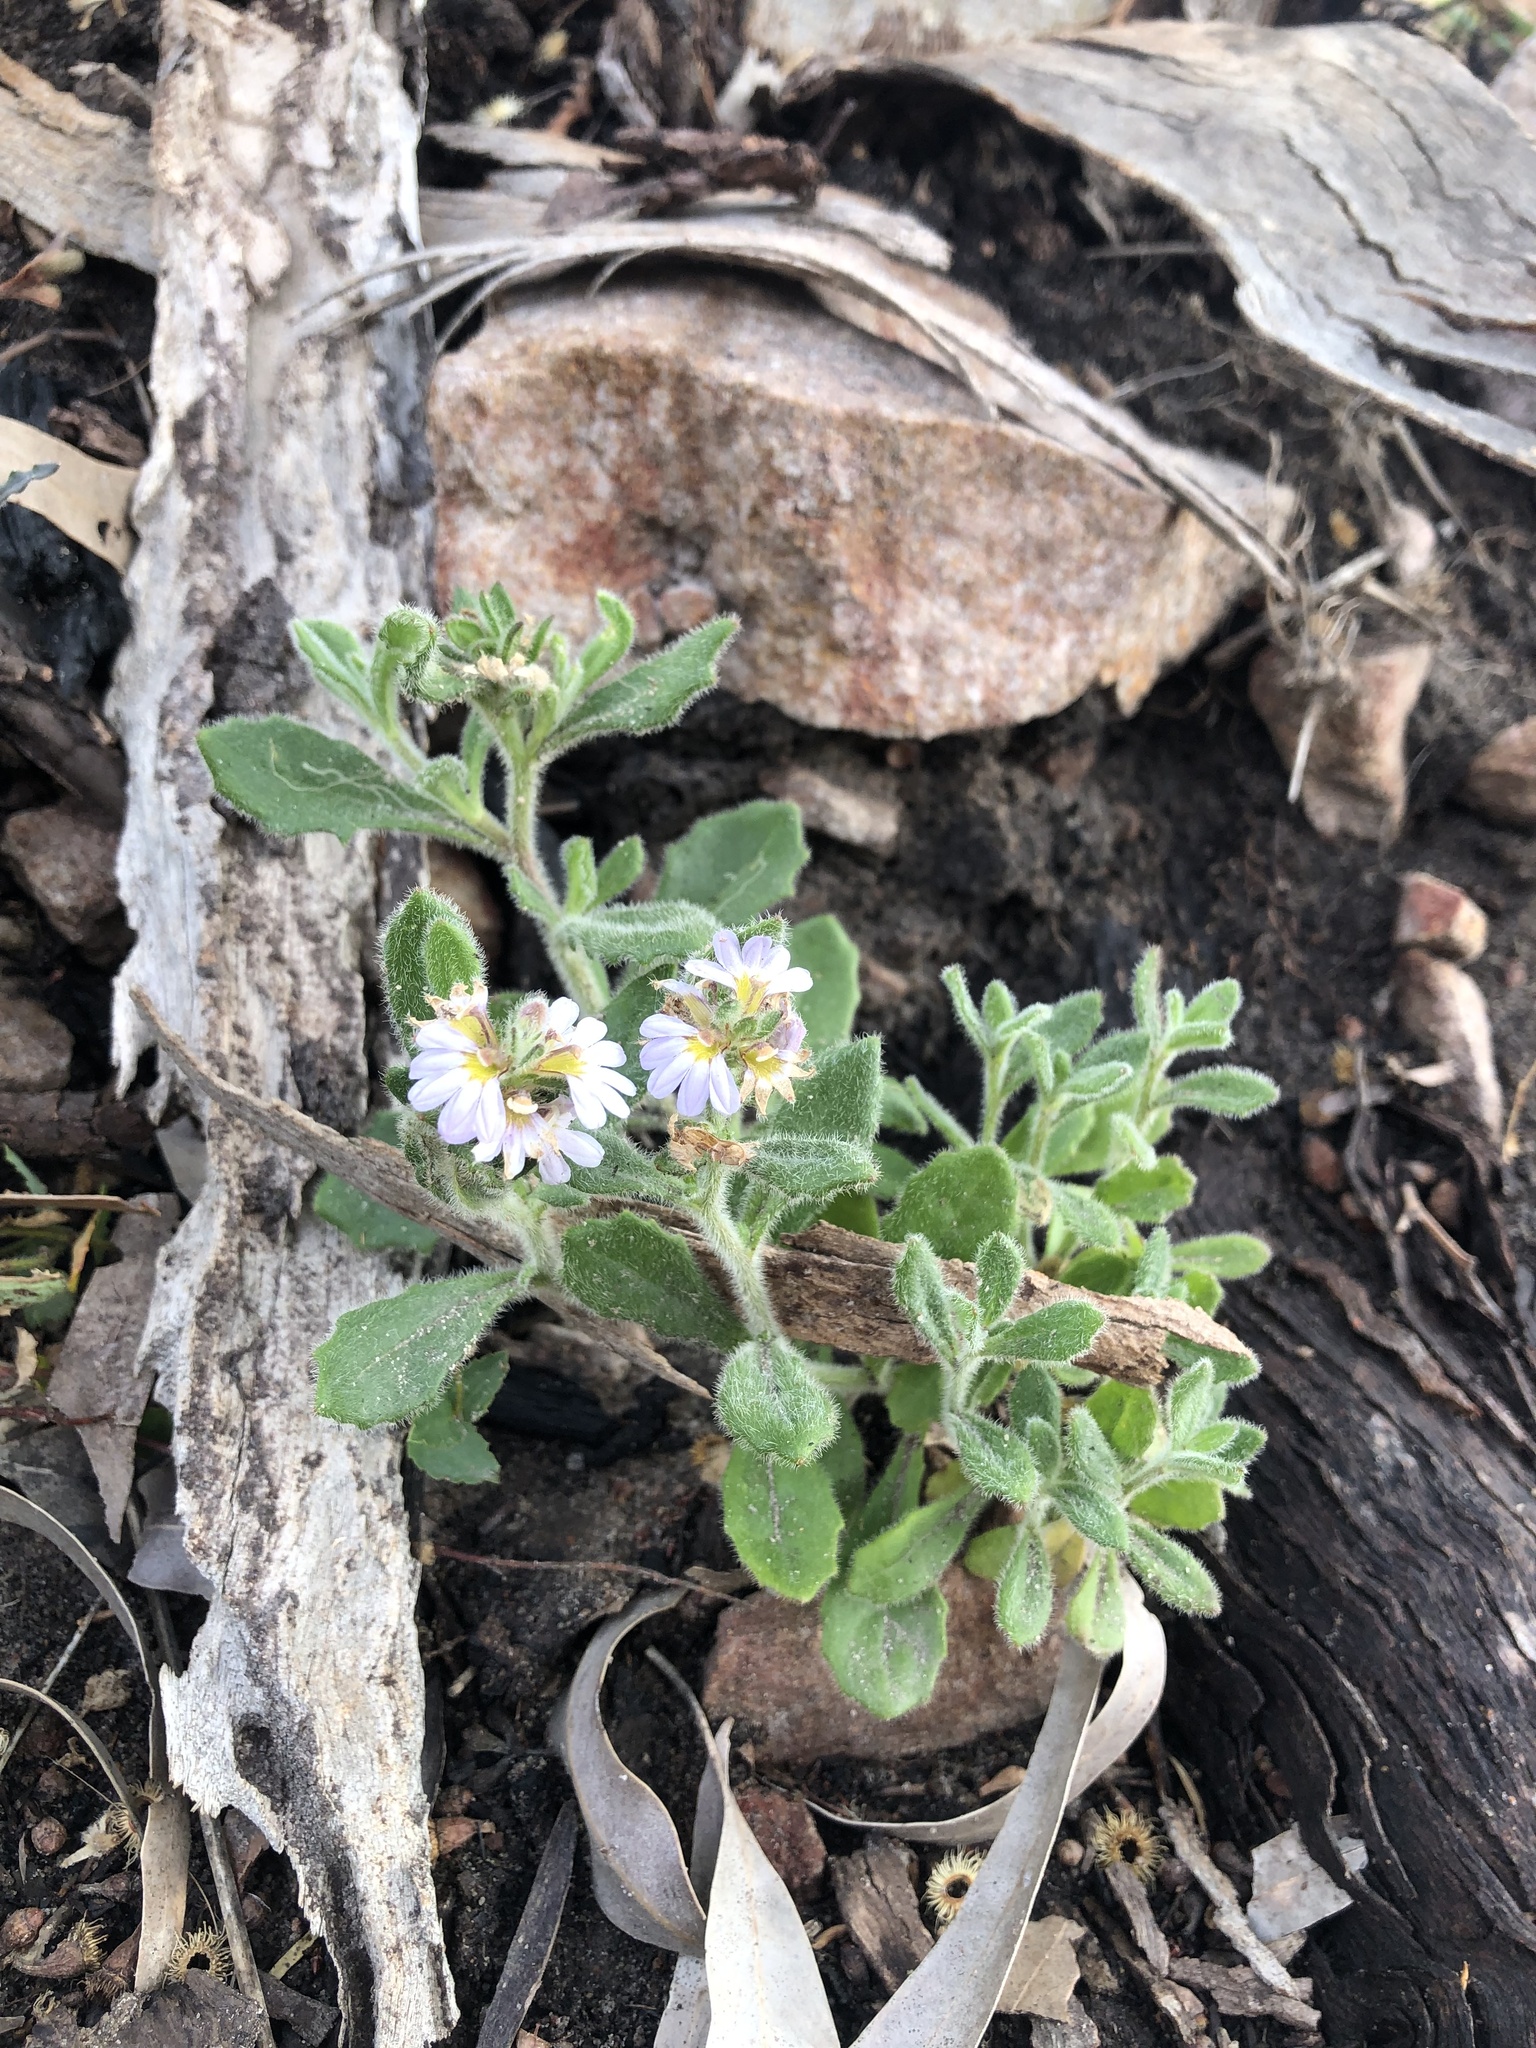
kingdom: Plantae
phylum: Tracheophyta
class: Magnoliopsida
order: Asterales
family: Goodeniaceae
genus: Scaevola
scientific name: Scaevola albida
